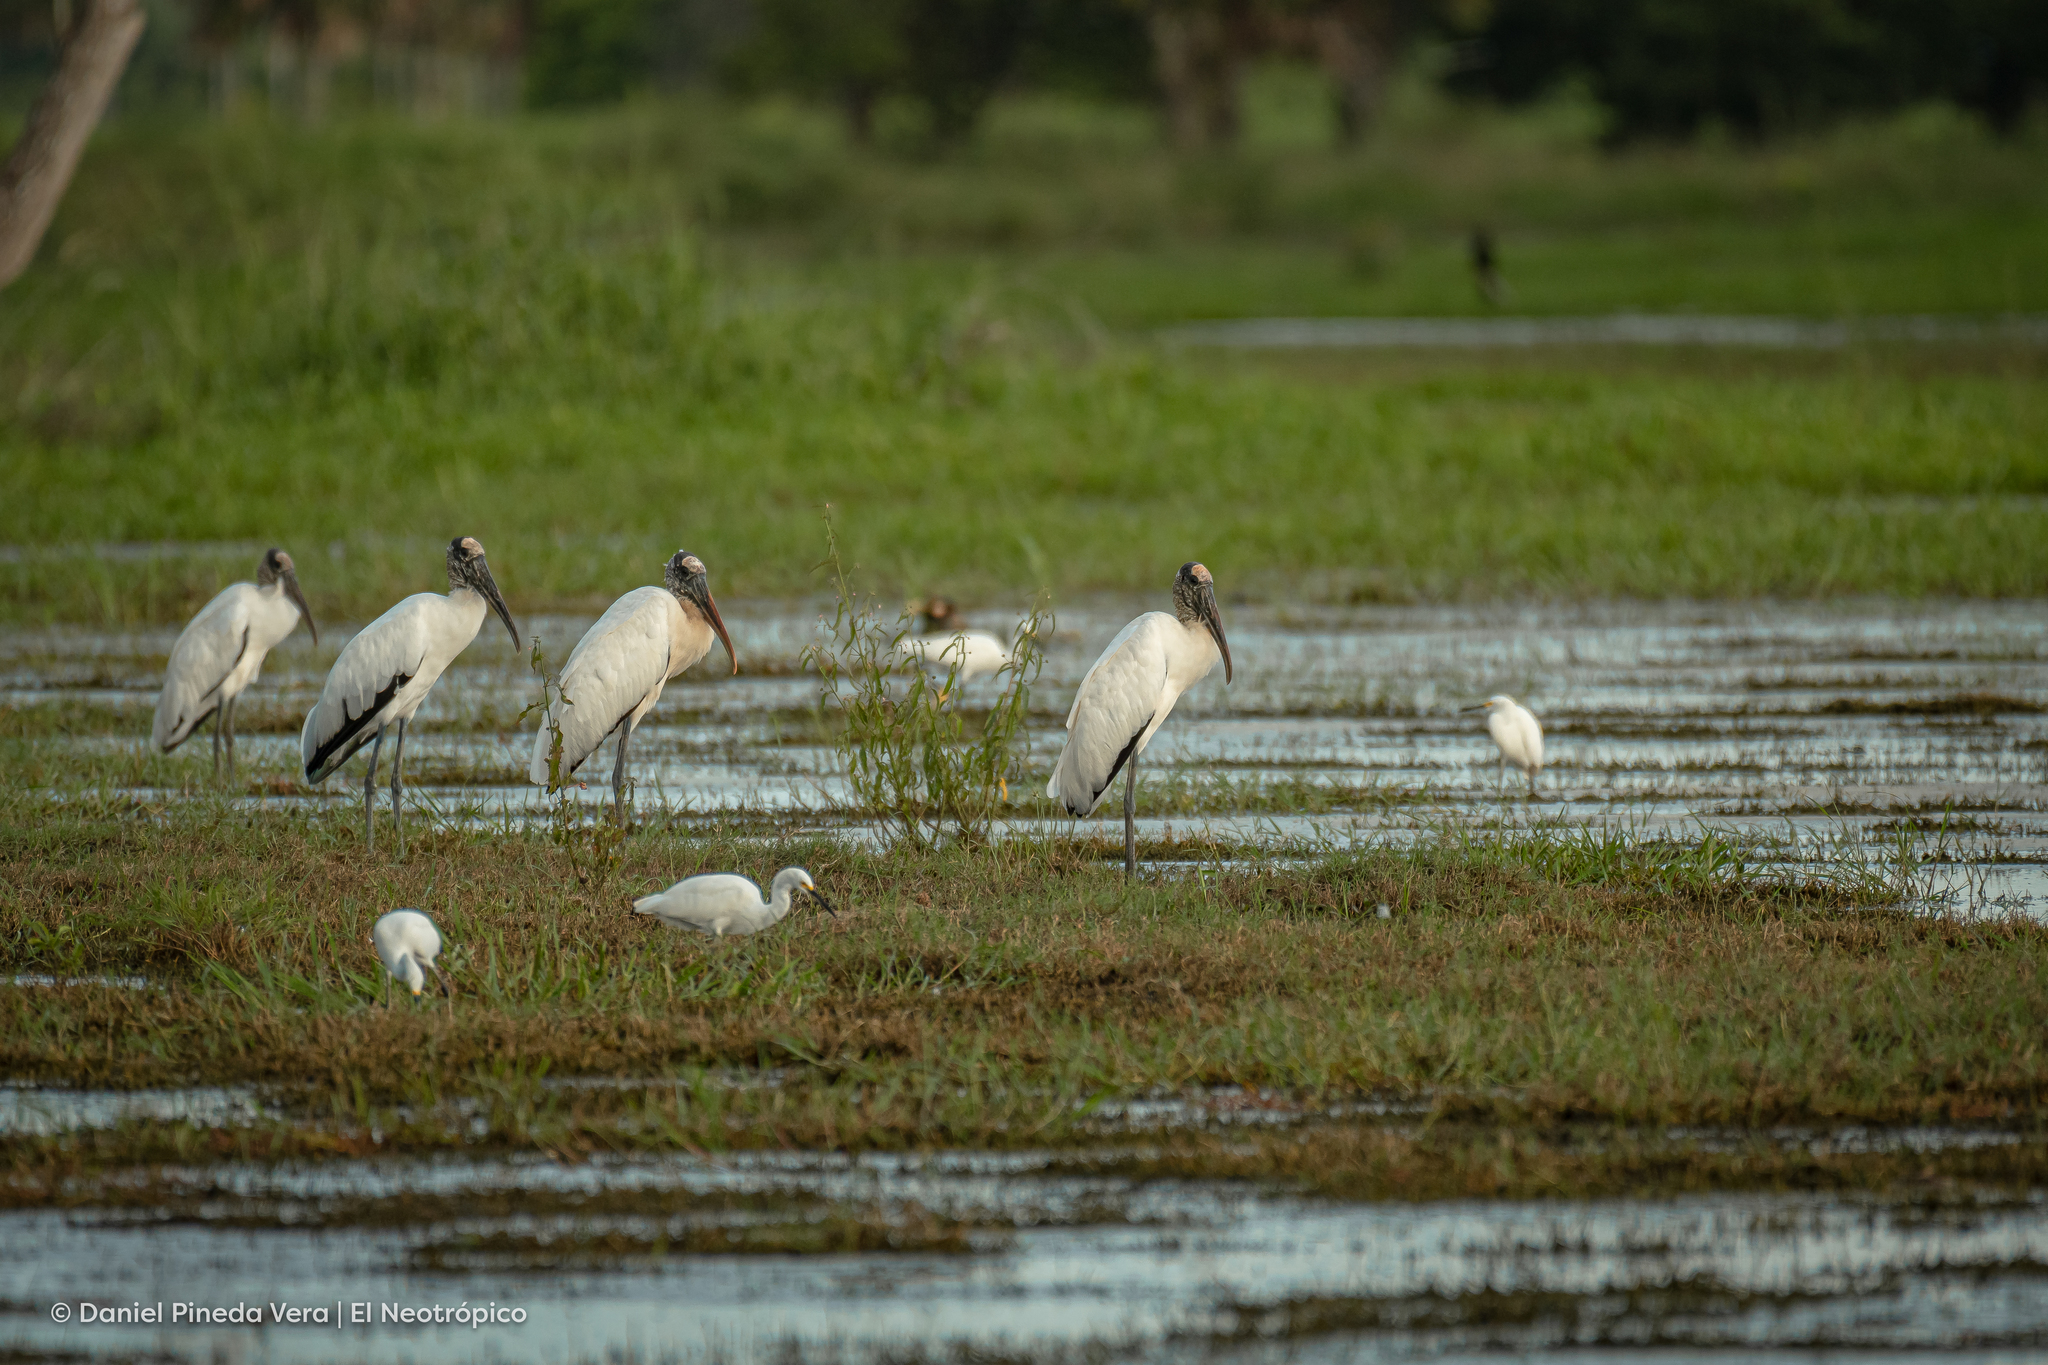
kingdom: Animalia
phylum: Chordata
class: Aves
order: Ciconiiformes
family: Ciconiidae
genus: Mycteria
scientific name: Mycteria americana
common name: Wood stork
